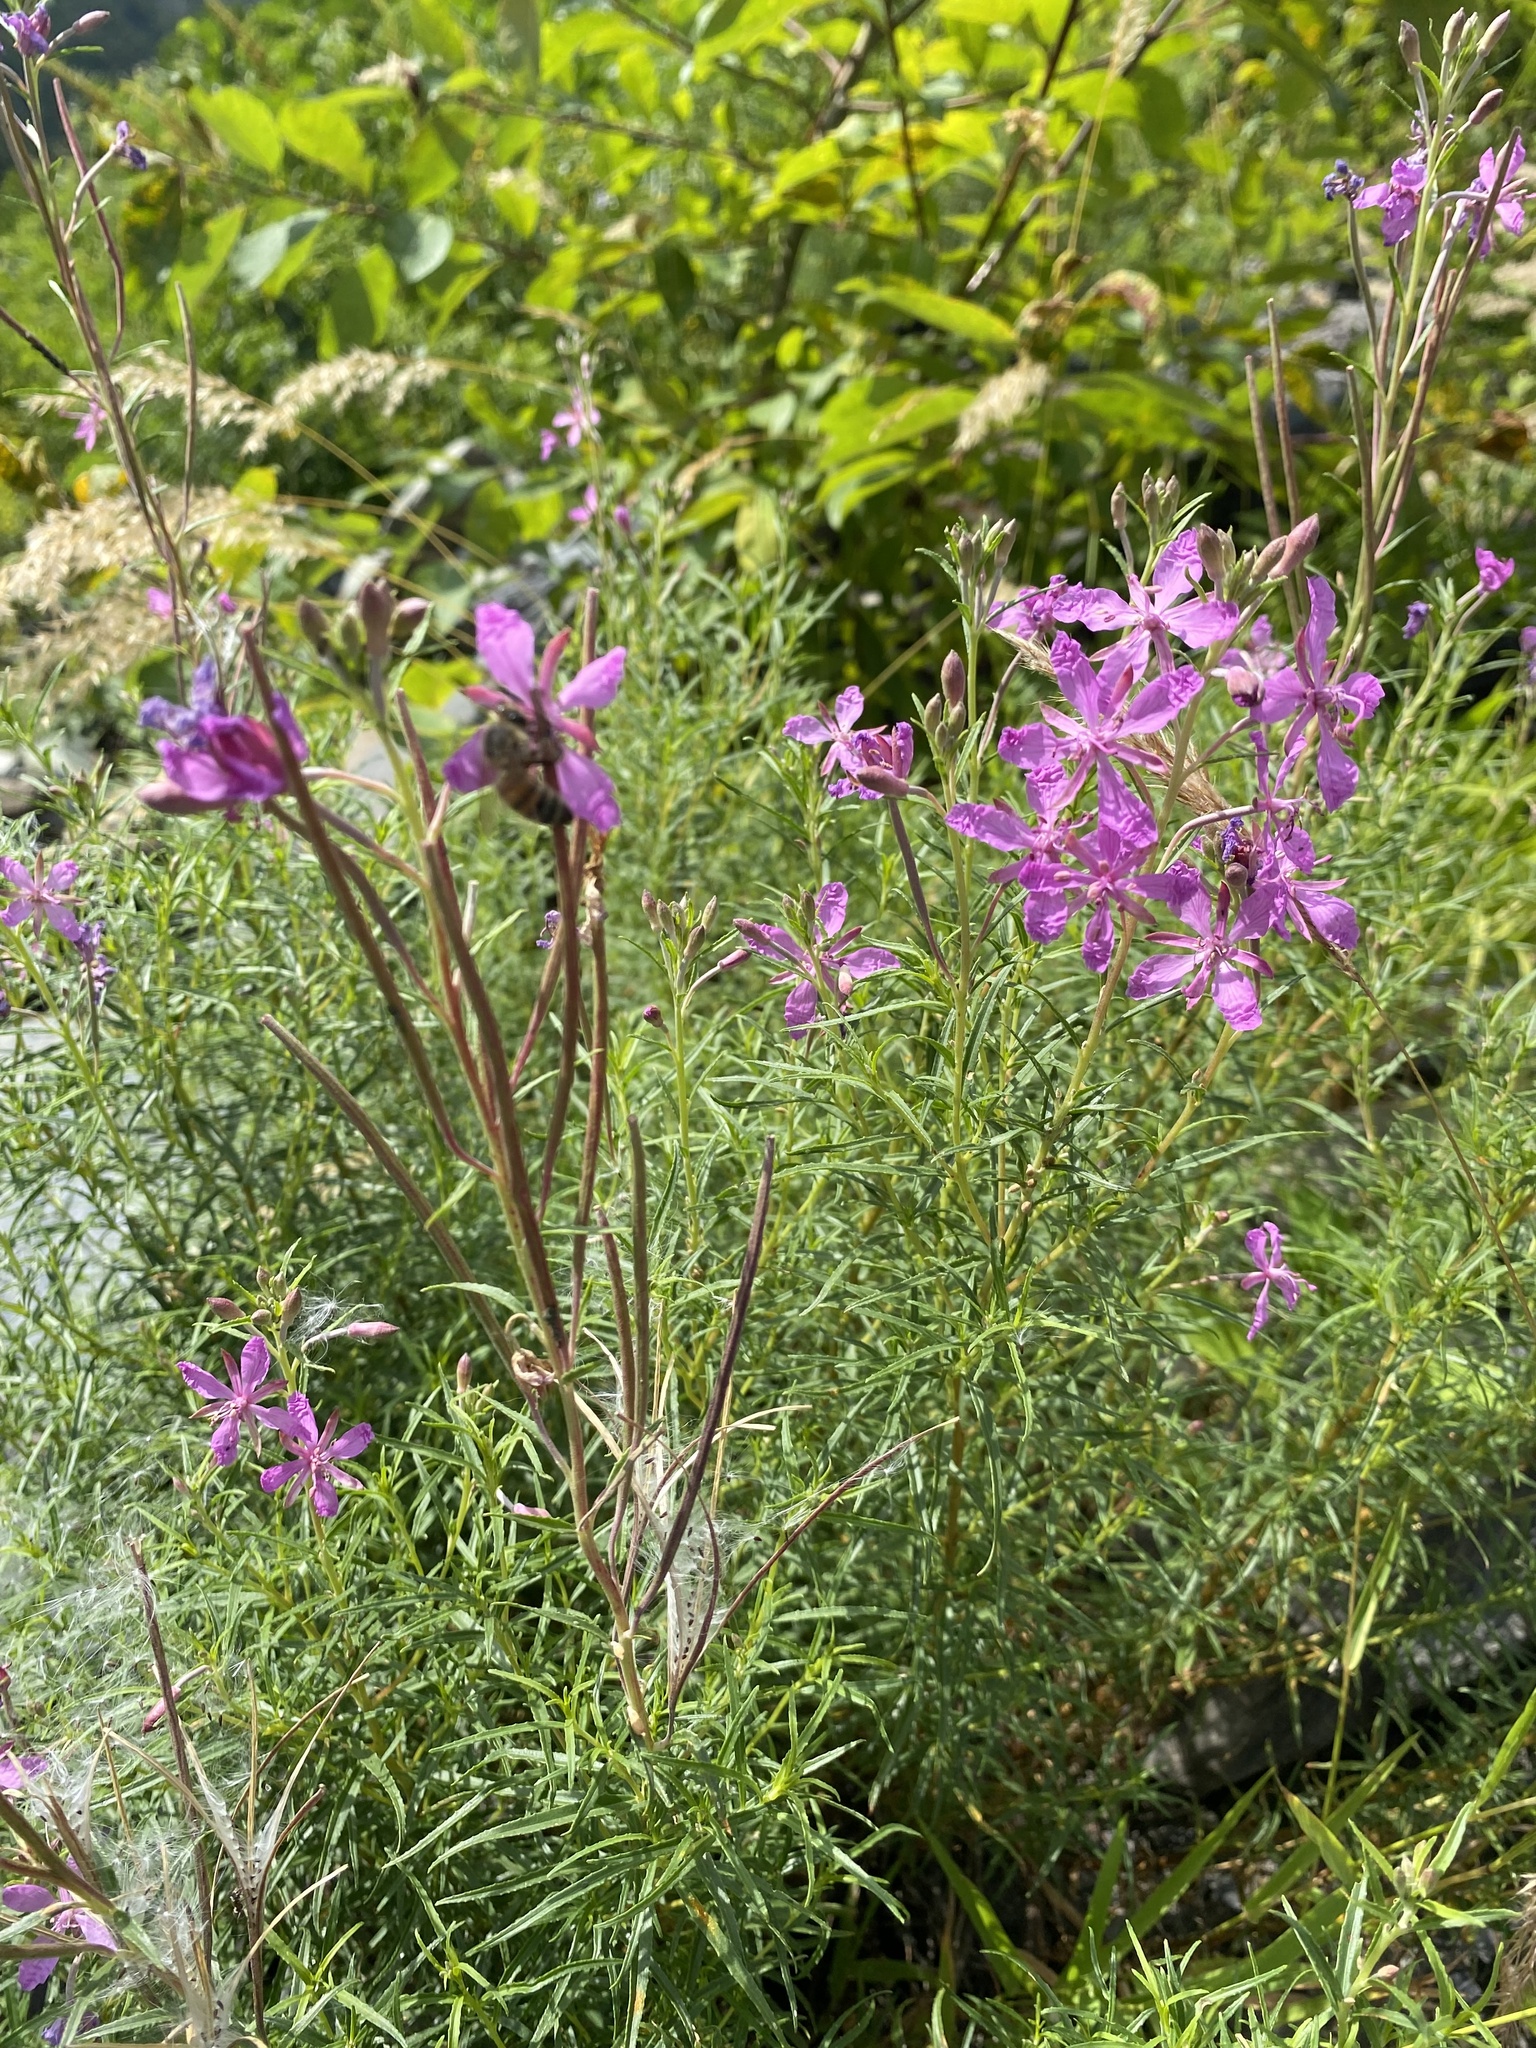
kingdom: Plantae
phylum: Tracheophyta
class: Magnoliopsida
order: Myrtales
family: Onagraceae
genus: Chamaenerion
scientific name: Chamaenerion colchicum
